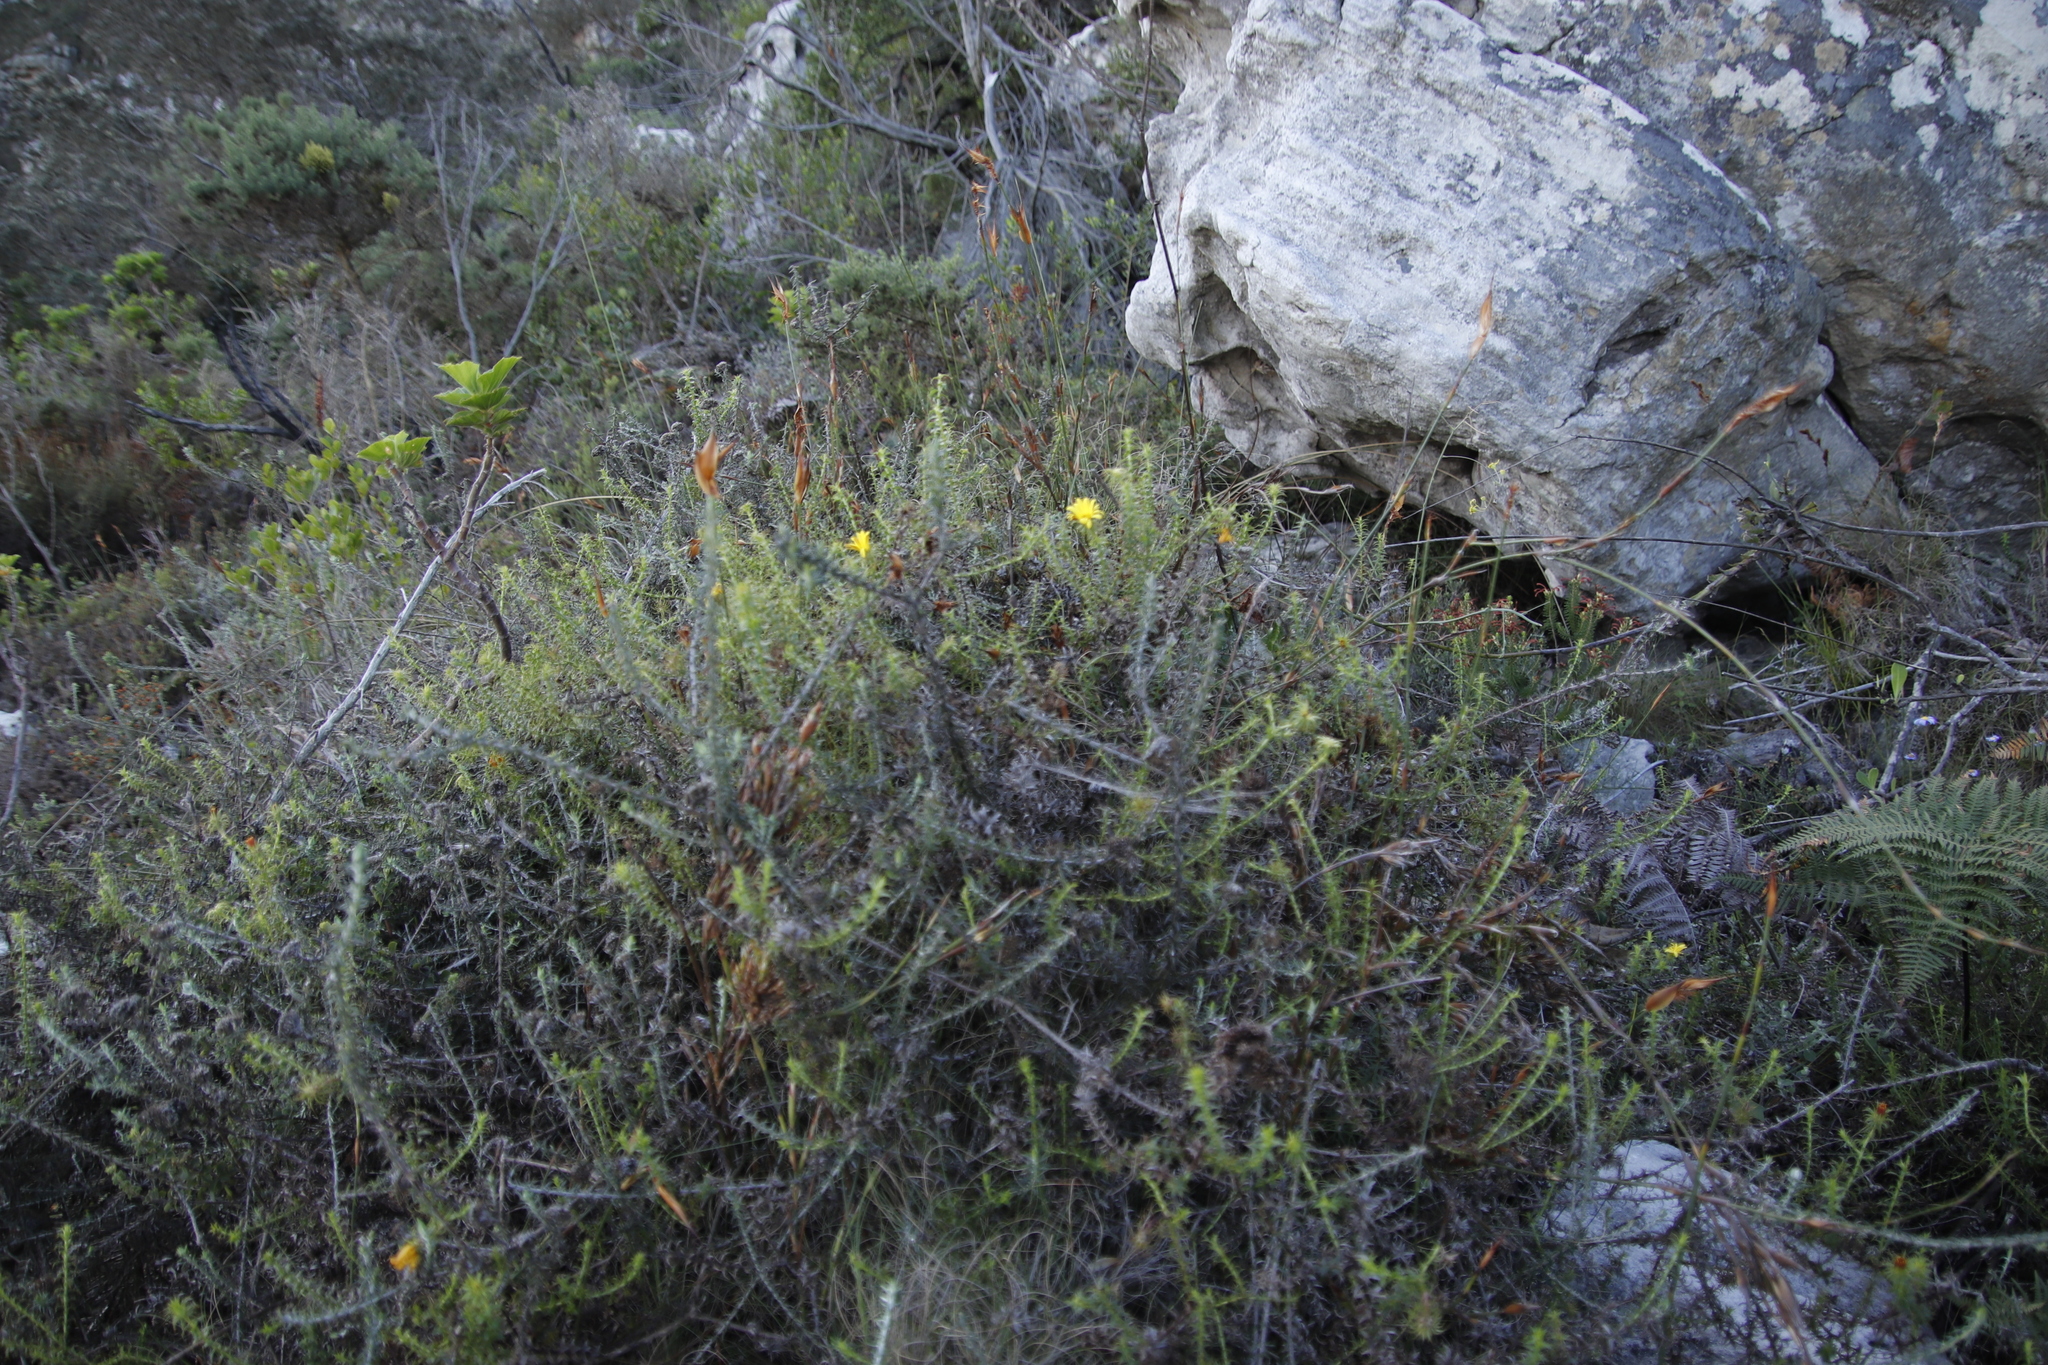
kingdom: Plantae
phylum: Tracheophyta
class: Magnoliopsida
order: Asterales
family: Asteraceae
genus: Cullumia
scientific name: Cullumia setosa
